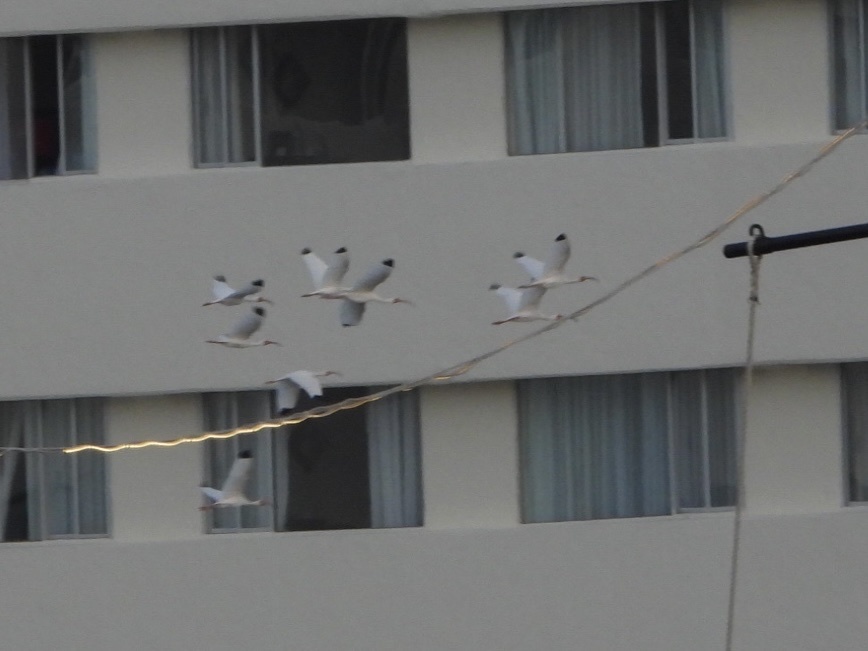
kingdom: Animalia
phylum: Chordata
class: Aves
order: Pelecaniformes
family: Threskiornithidae
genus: Eudocimus
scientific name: Eudocimus albus
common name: White ibis
